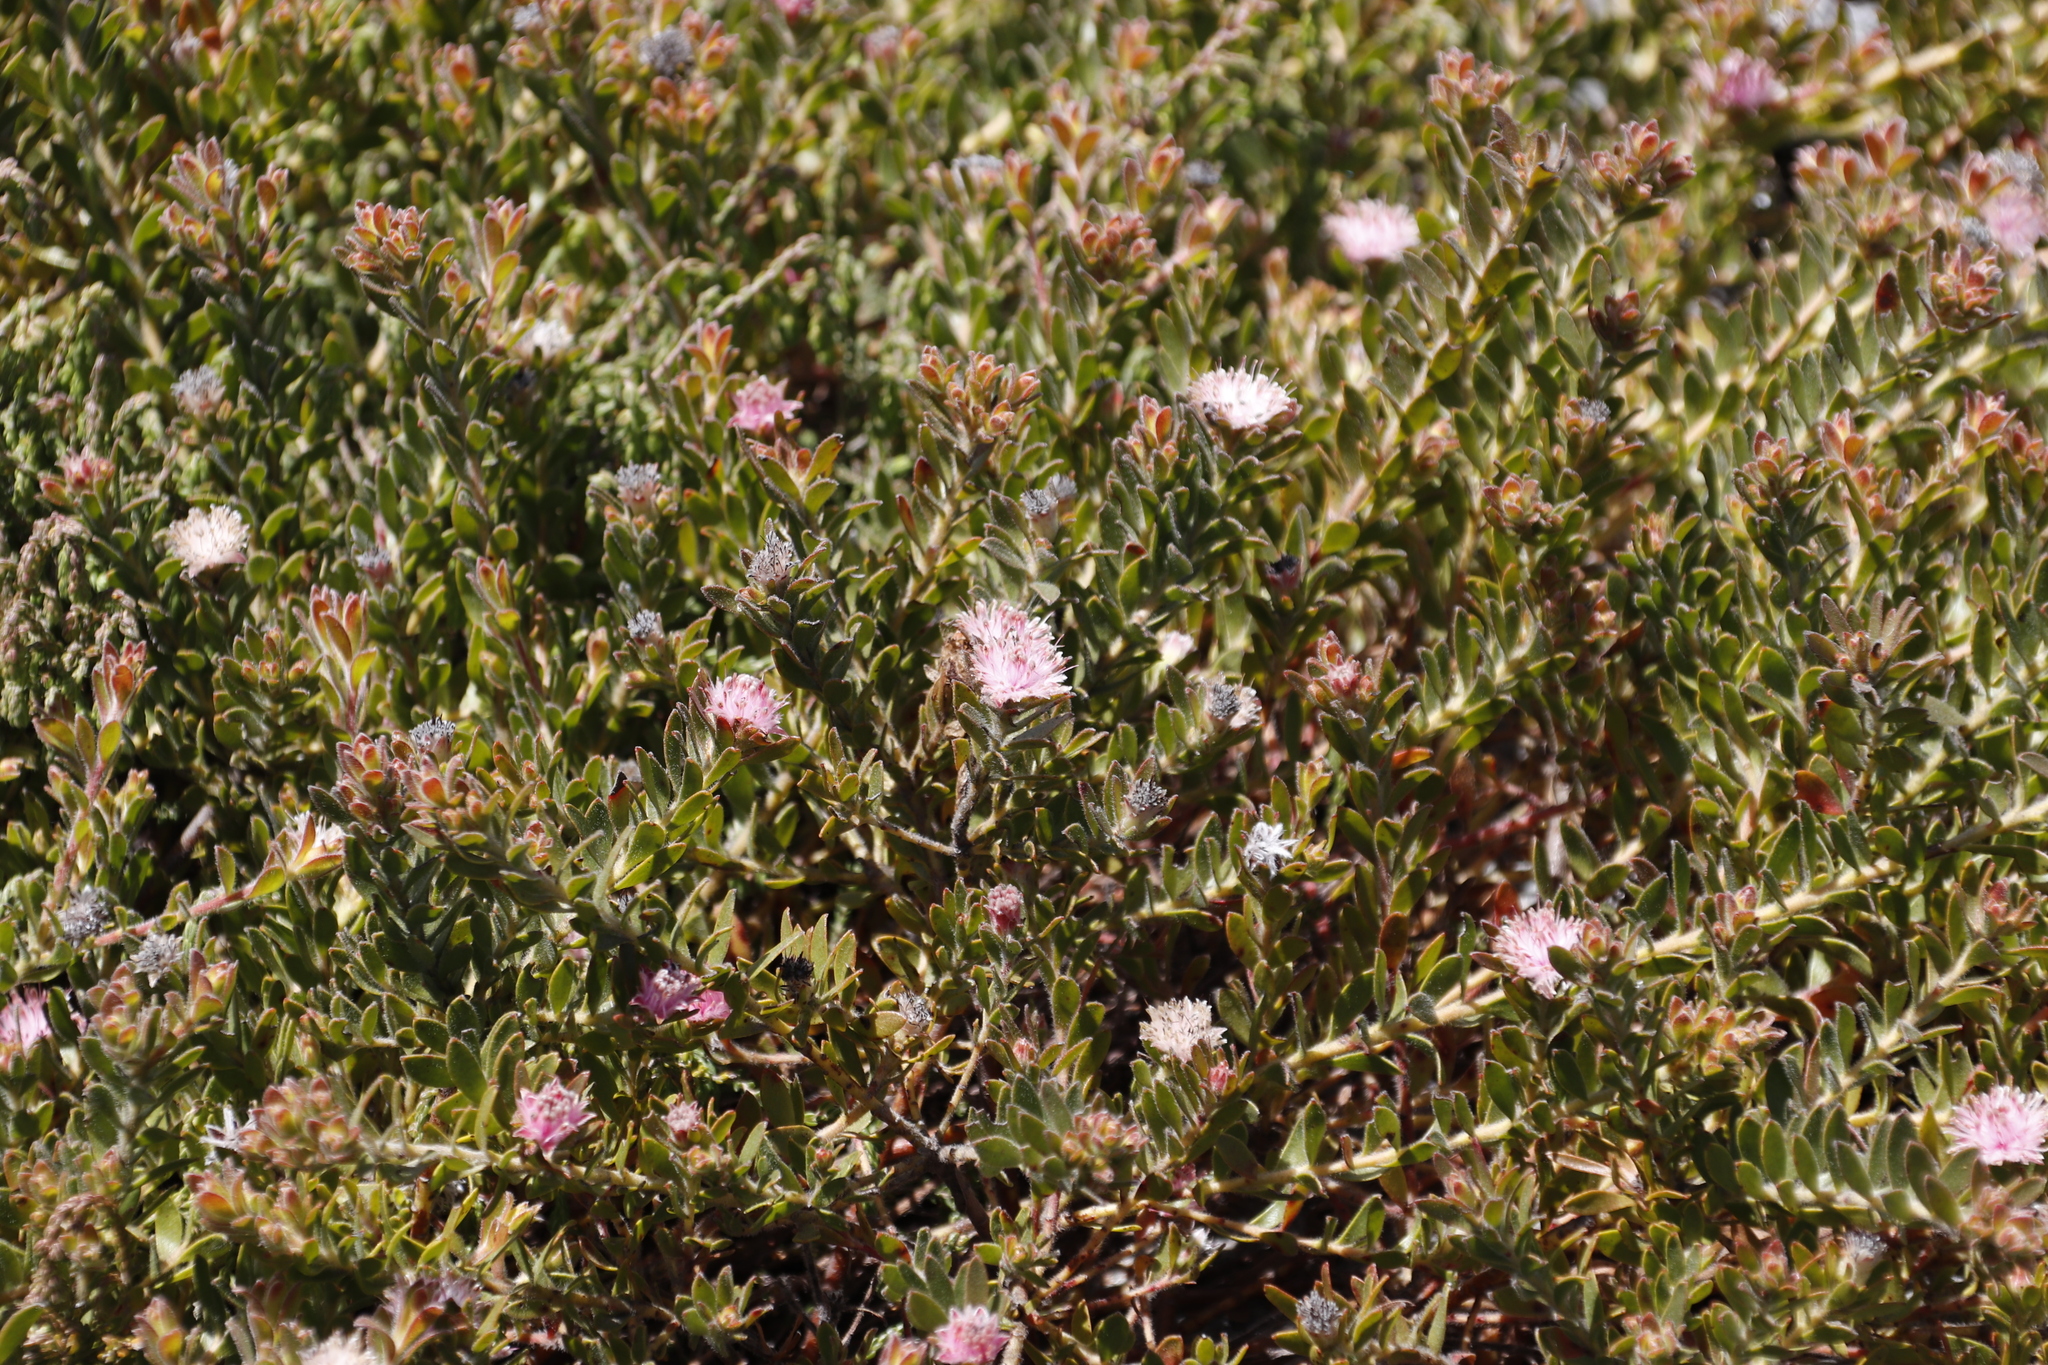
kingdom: Plantae
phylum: Tracheophyta
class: Magnoliopsida
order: Proteales
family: Proteaceae
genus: Diastella
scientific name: Diastella divaricata
